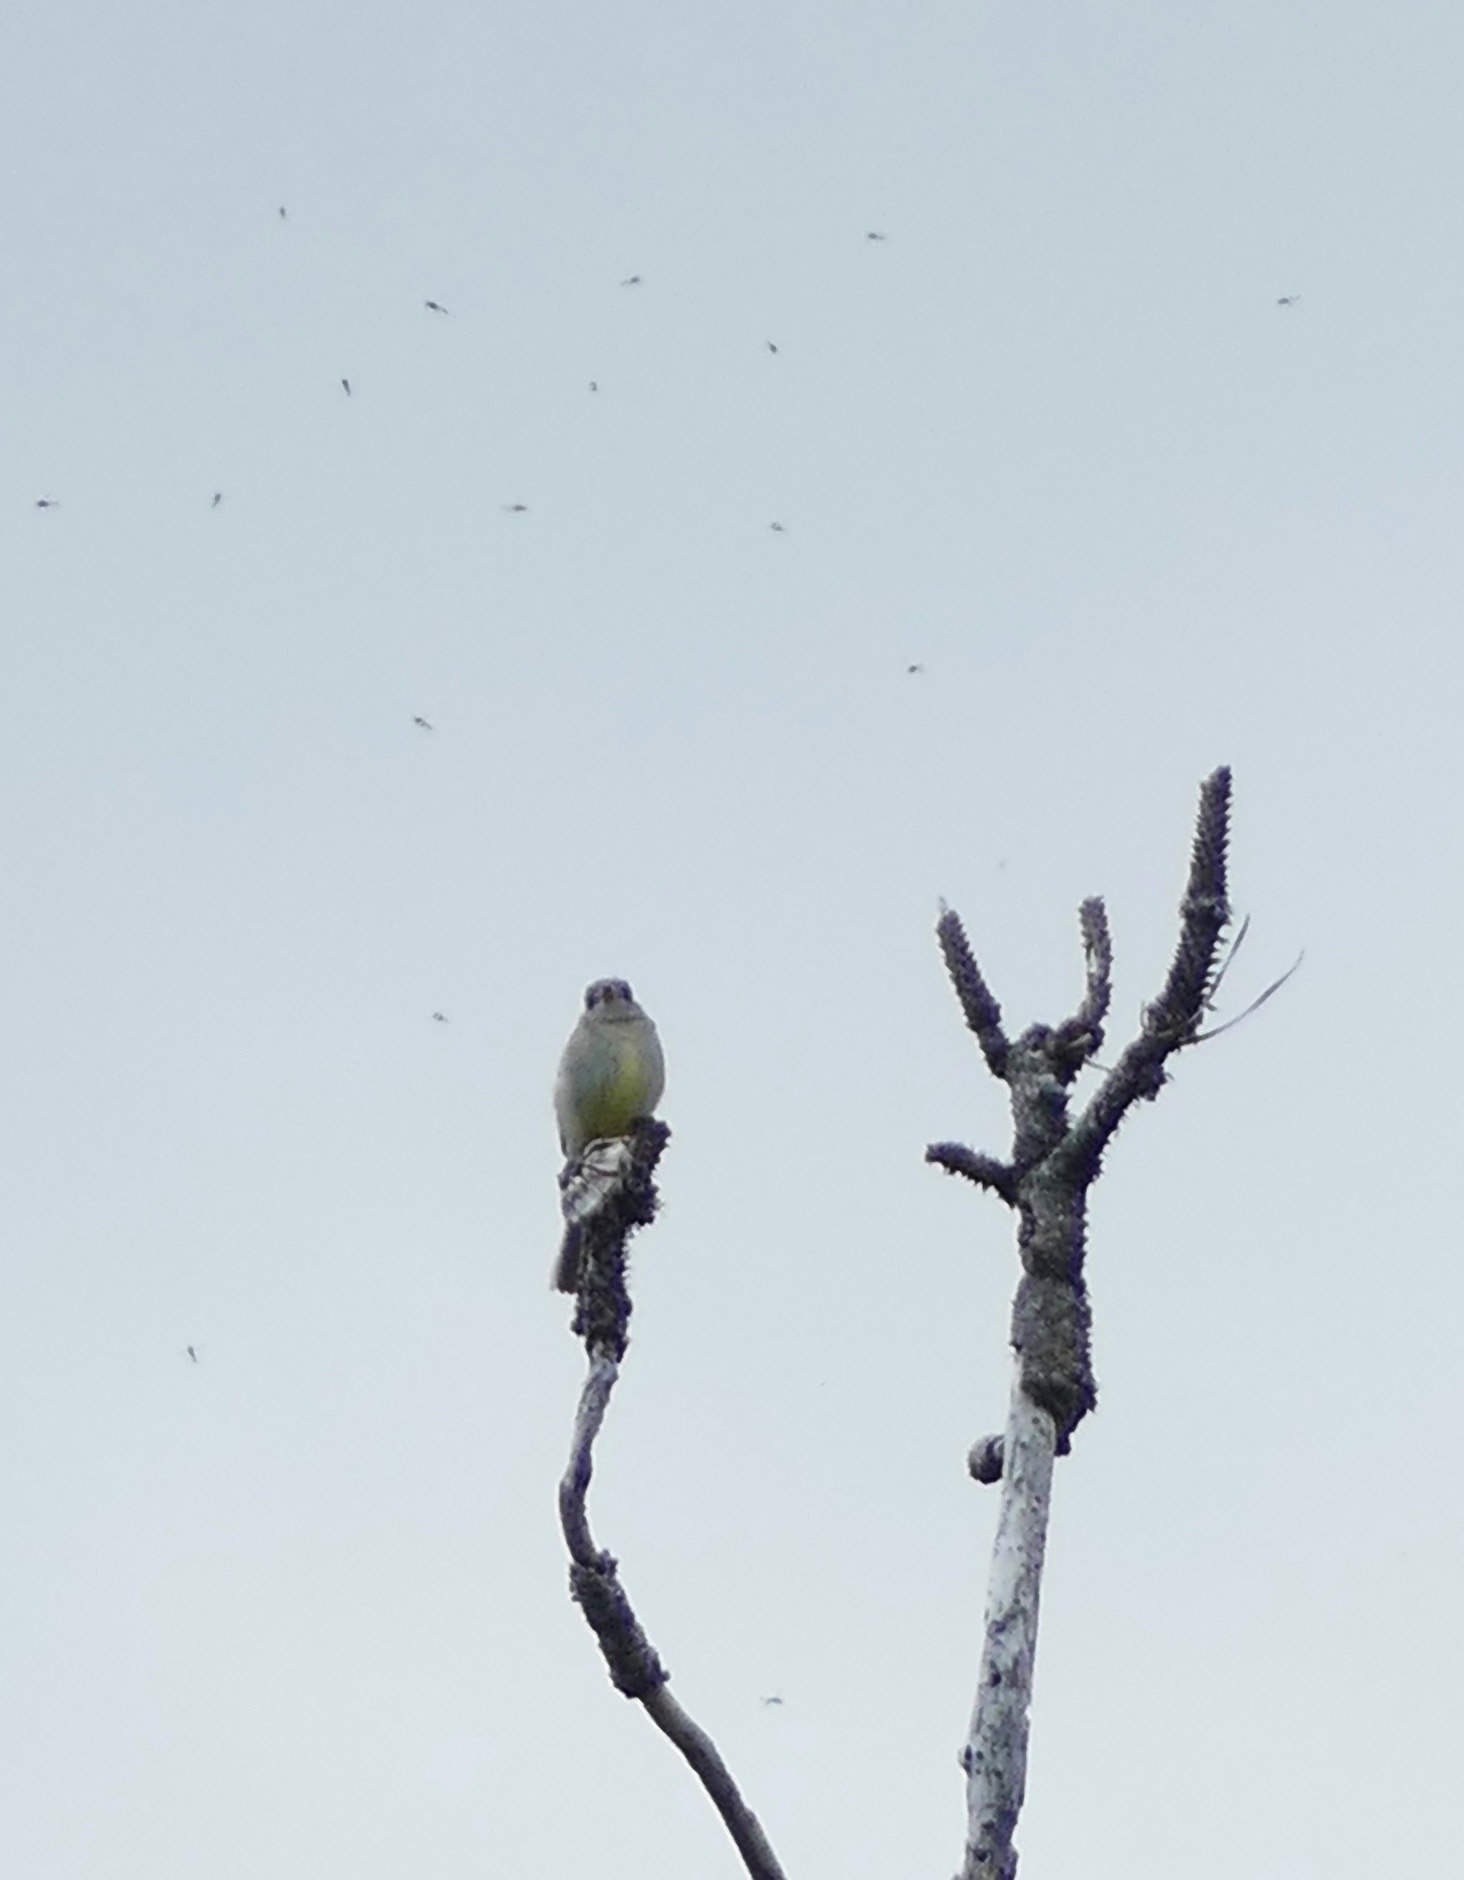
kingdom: Animalia
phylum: Chordata
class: Aves
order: Passeriformes
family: Tyrannidae
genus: Empidonax
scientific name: Empidonax
